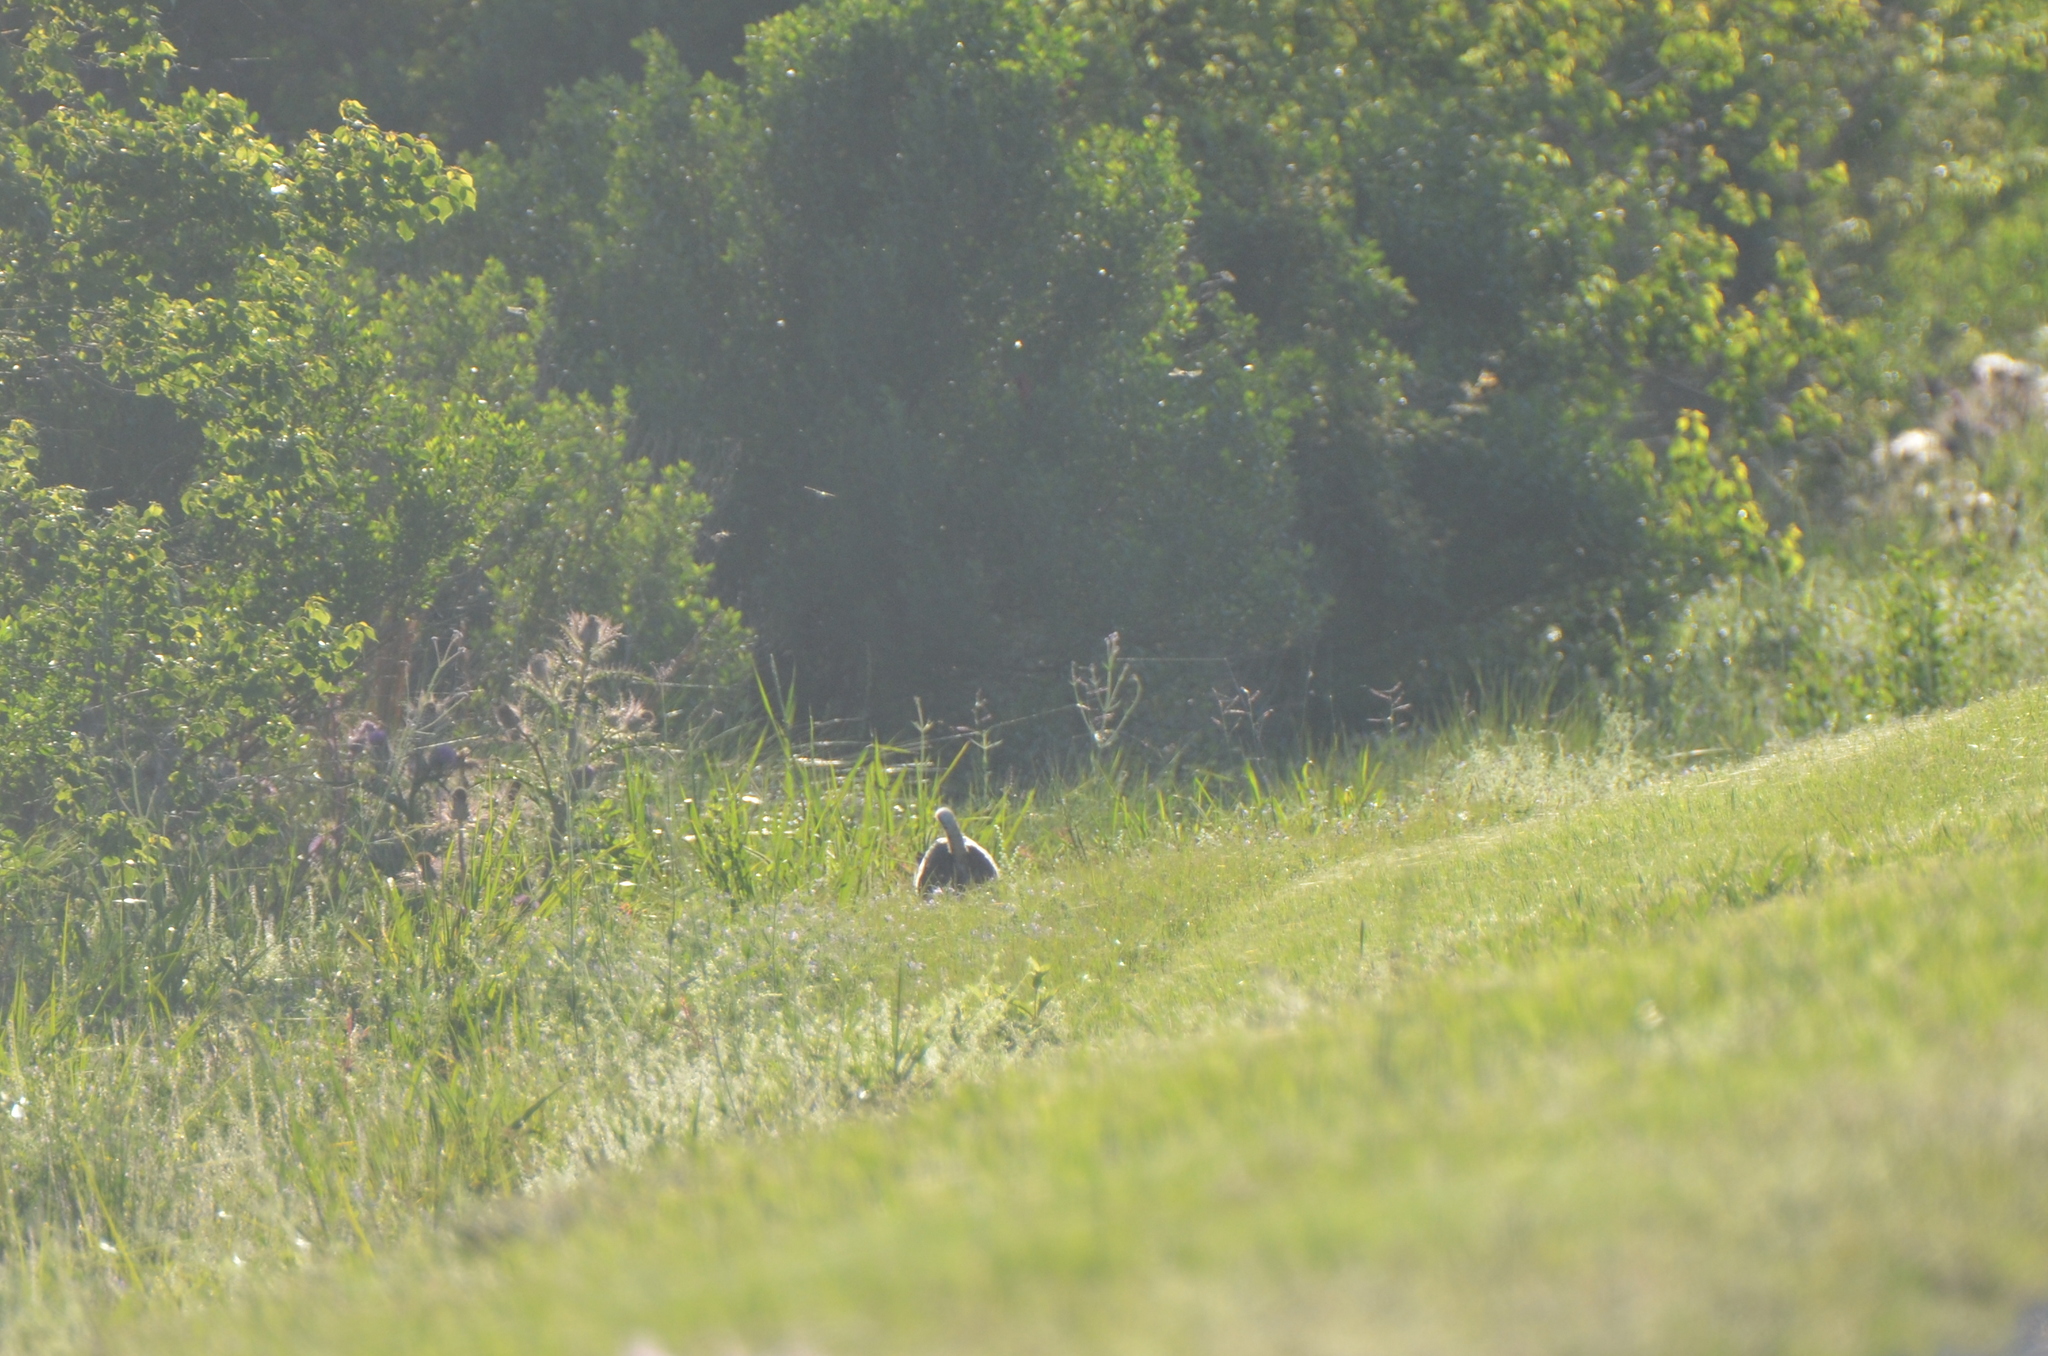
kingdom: Animalia
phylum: Chordata
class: Mammalia
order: Carnivora
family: Felidae
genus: Lynx
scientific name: Lynx rufus
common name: Bobcat
